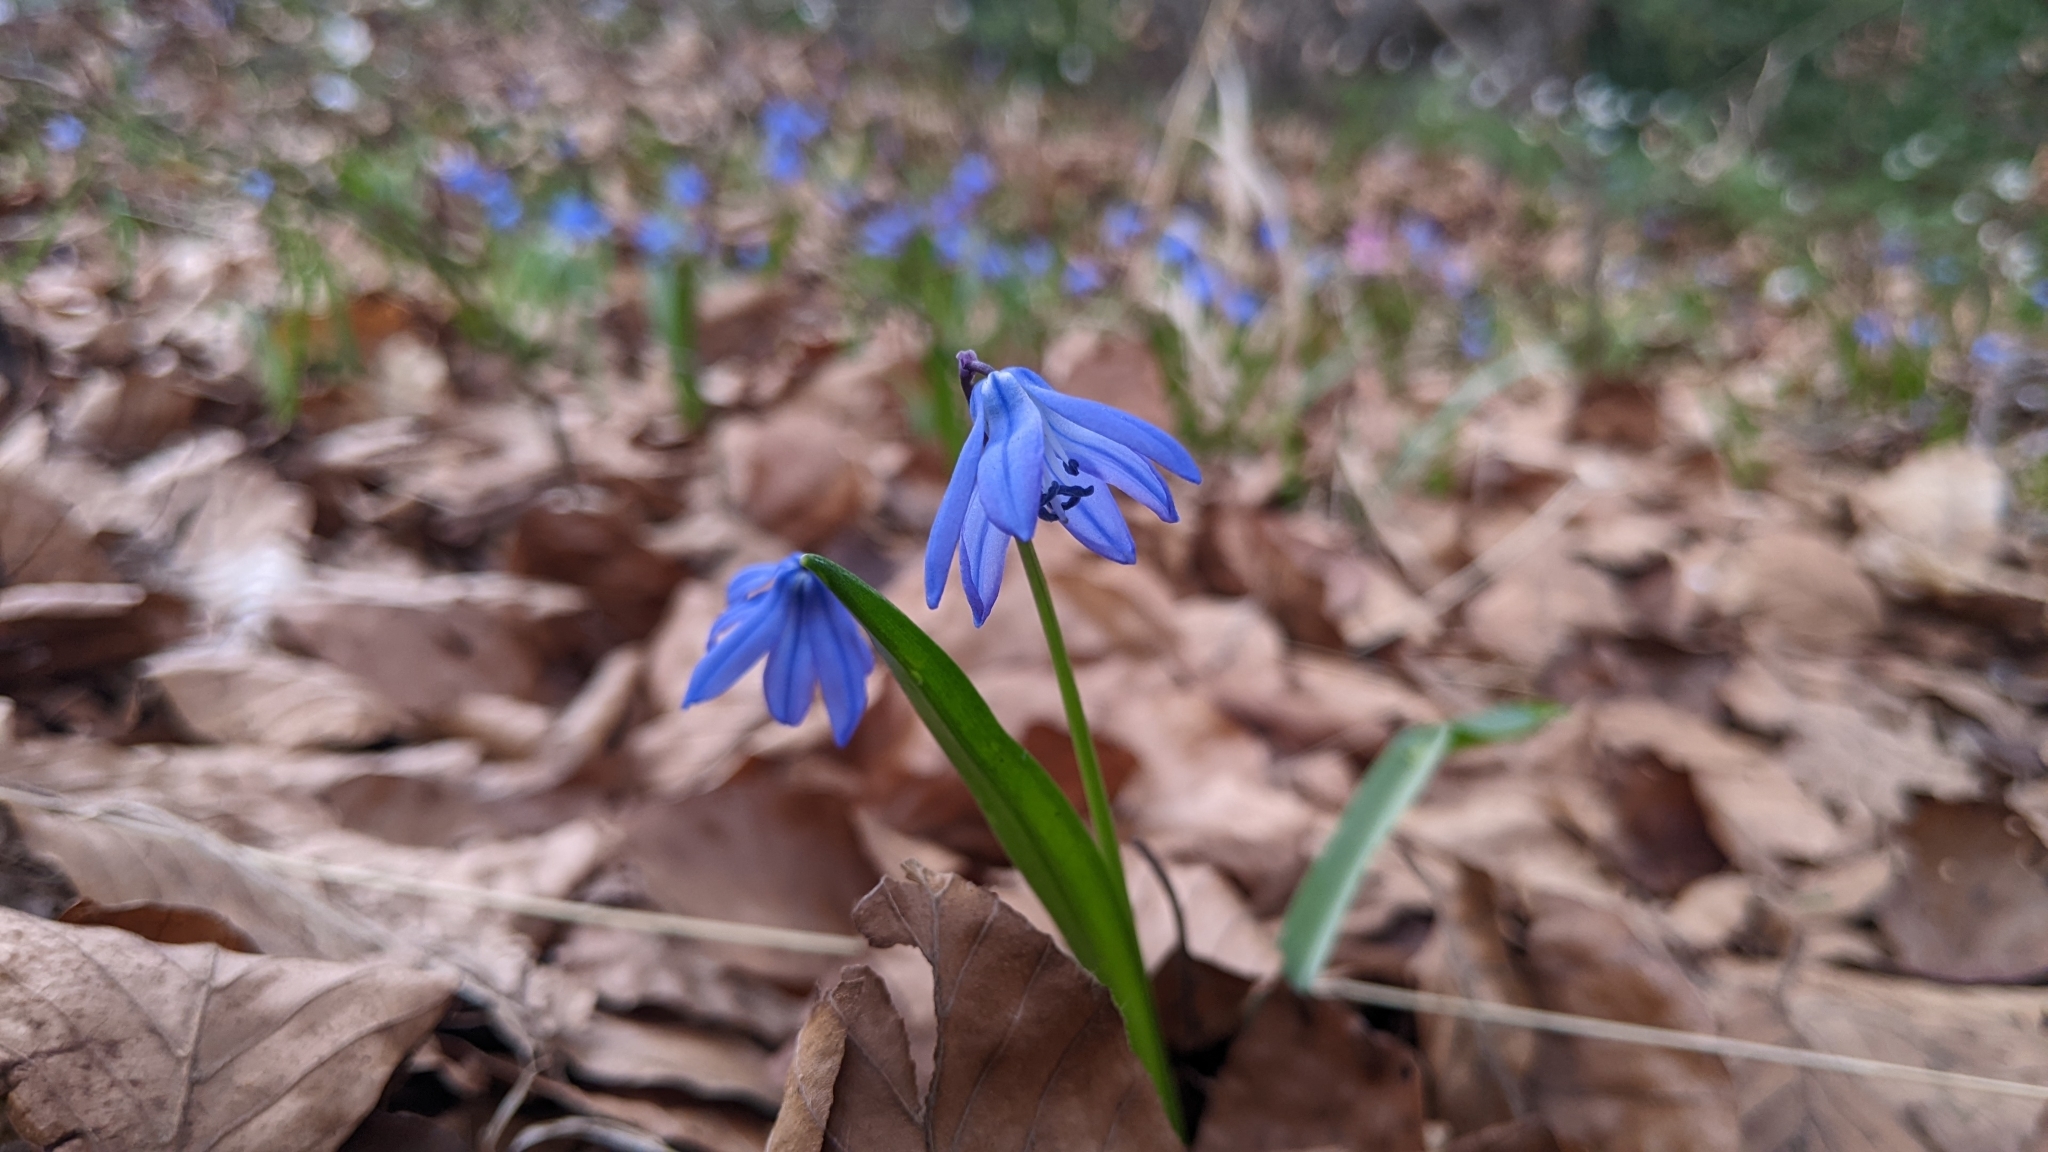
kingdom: Plantae
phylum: Tracheophyta
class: Liliopsida
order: Asparagales
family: Asparagaceae
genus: Scilla
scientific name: Scilla siberica
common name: Siberian squill
